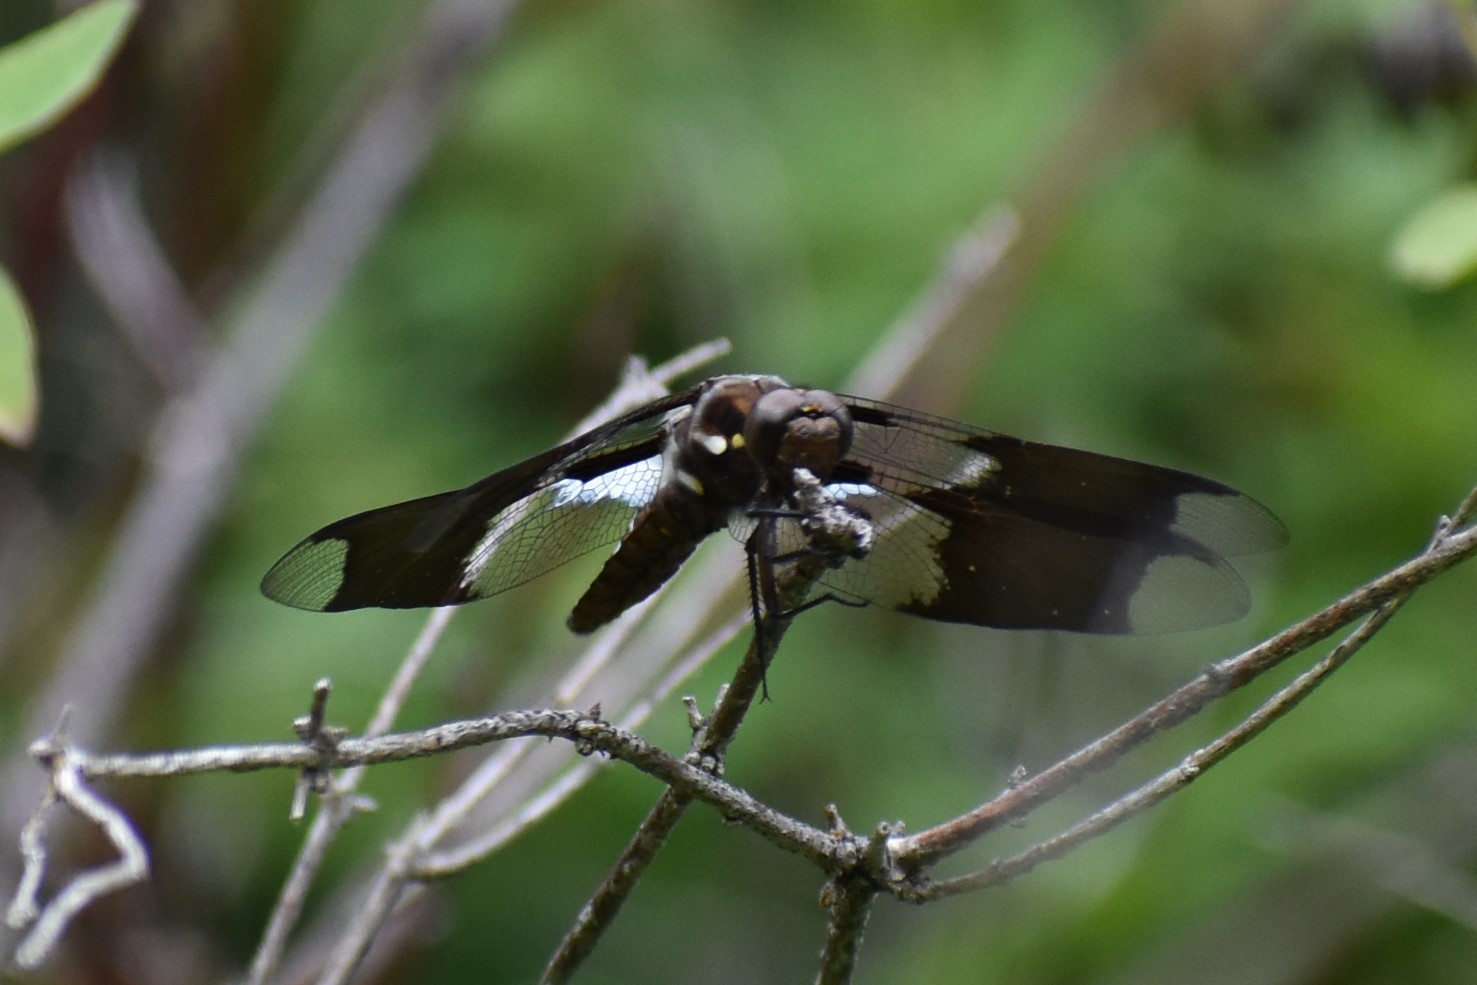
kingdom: Animalia
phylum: Arthropoda
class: Insecta
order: Odonata
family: Libellulidae
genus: Plathemis
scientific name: Plathemis lydia
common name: Common whitetail
